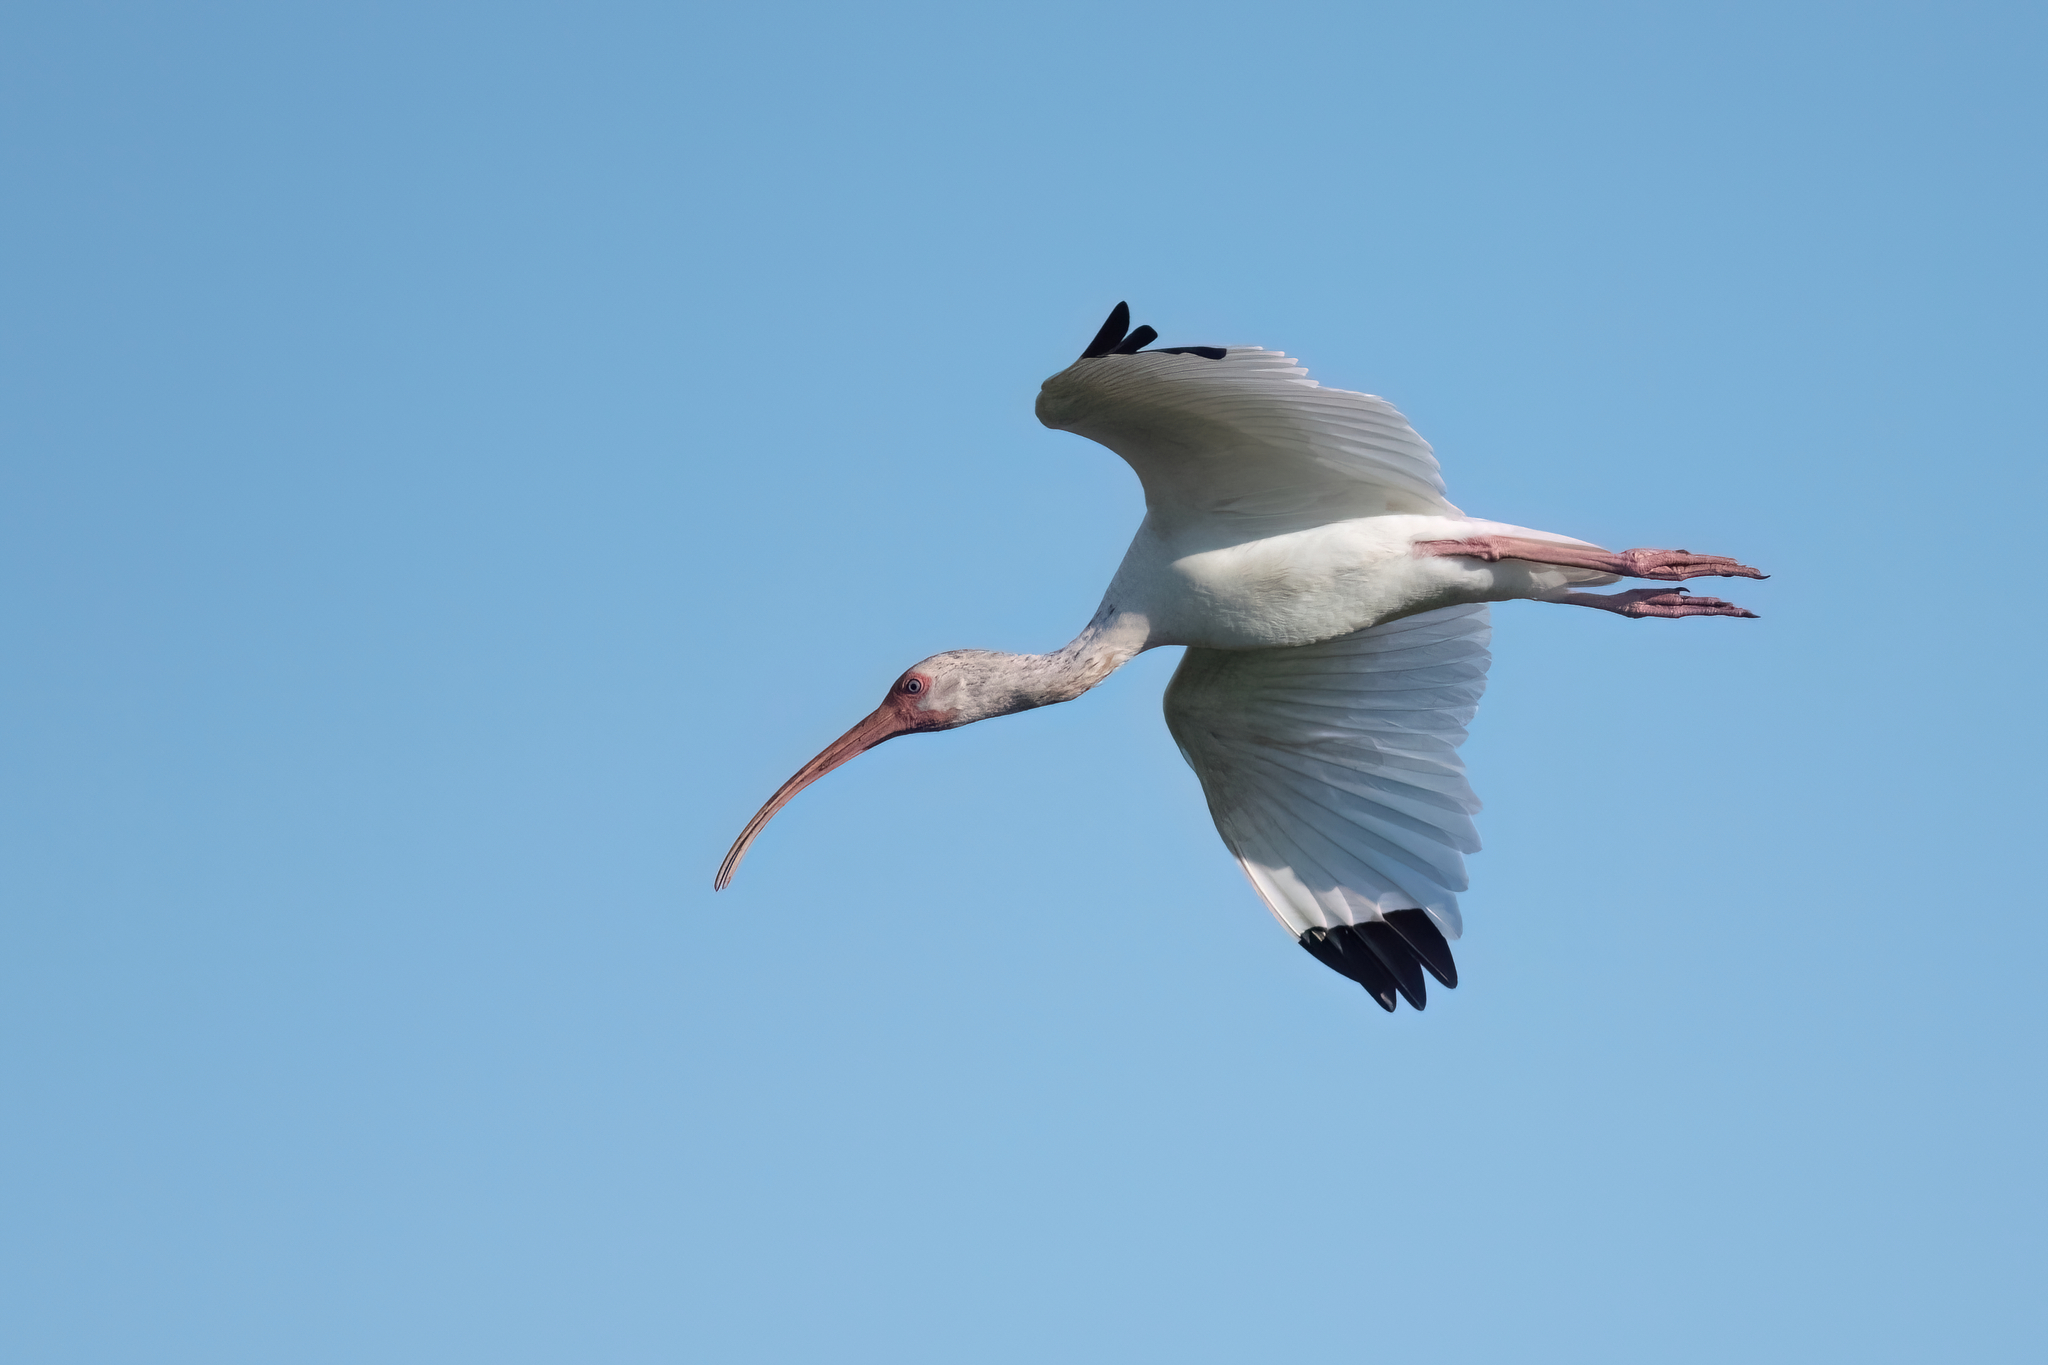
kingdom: Animalia
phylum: Chordata
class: Aves
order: Pelecaniformes
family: Threskiornithidae
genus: Eudocimus
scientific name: Eudocimus albus
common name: White ibis
